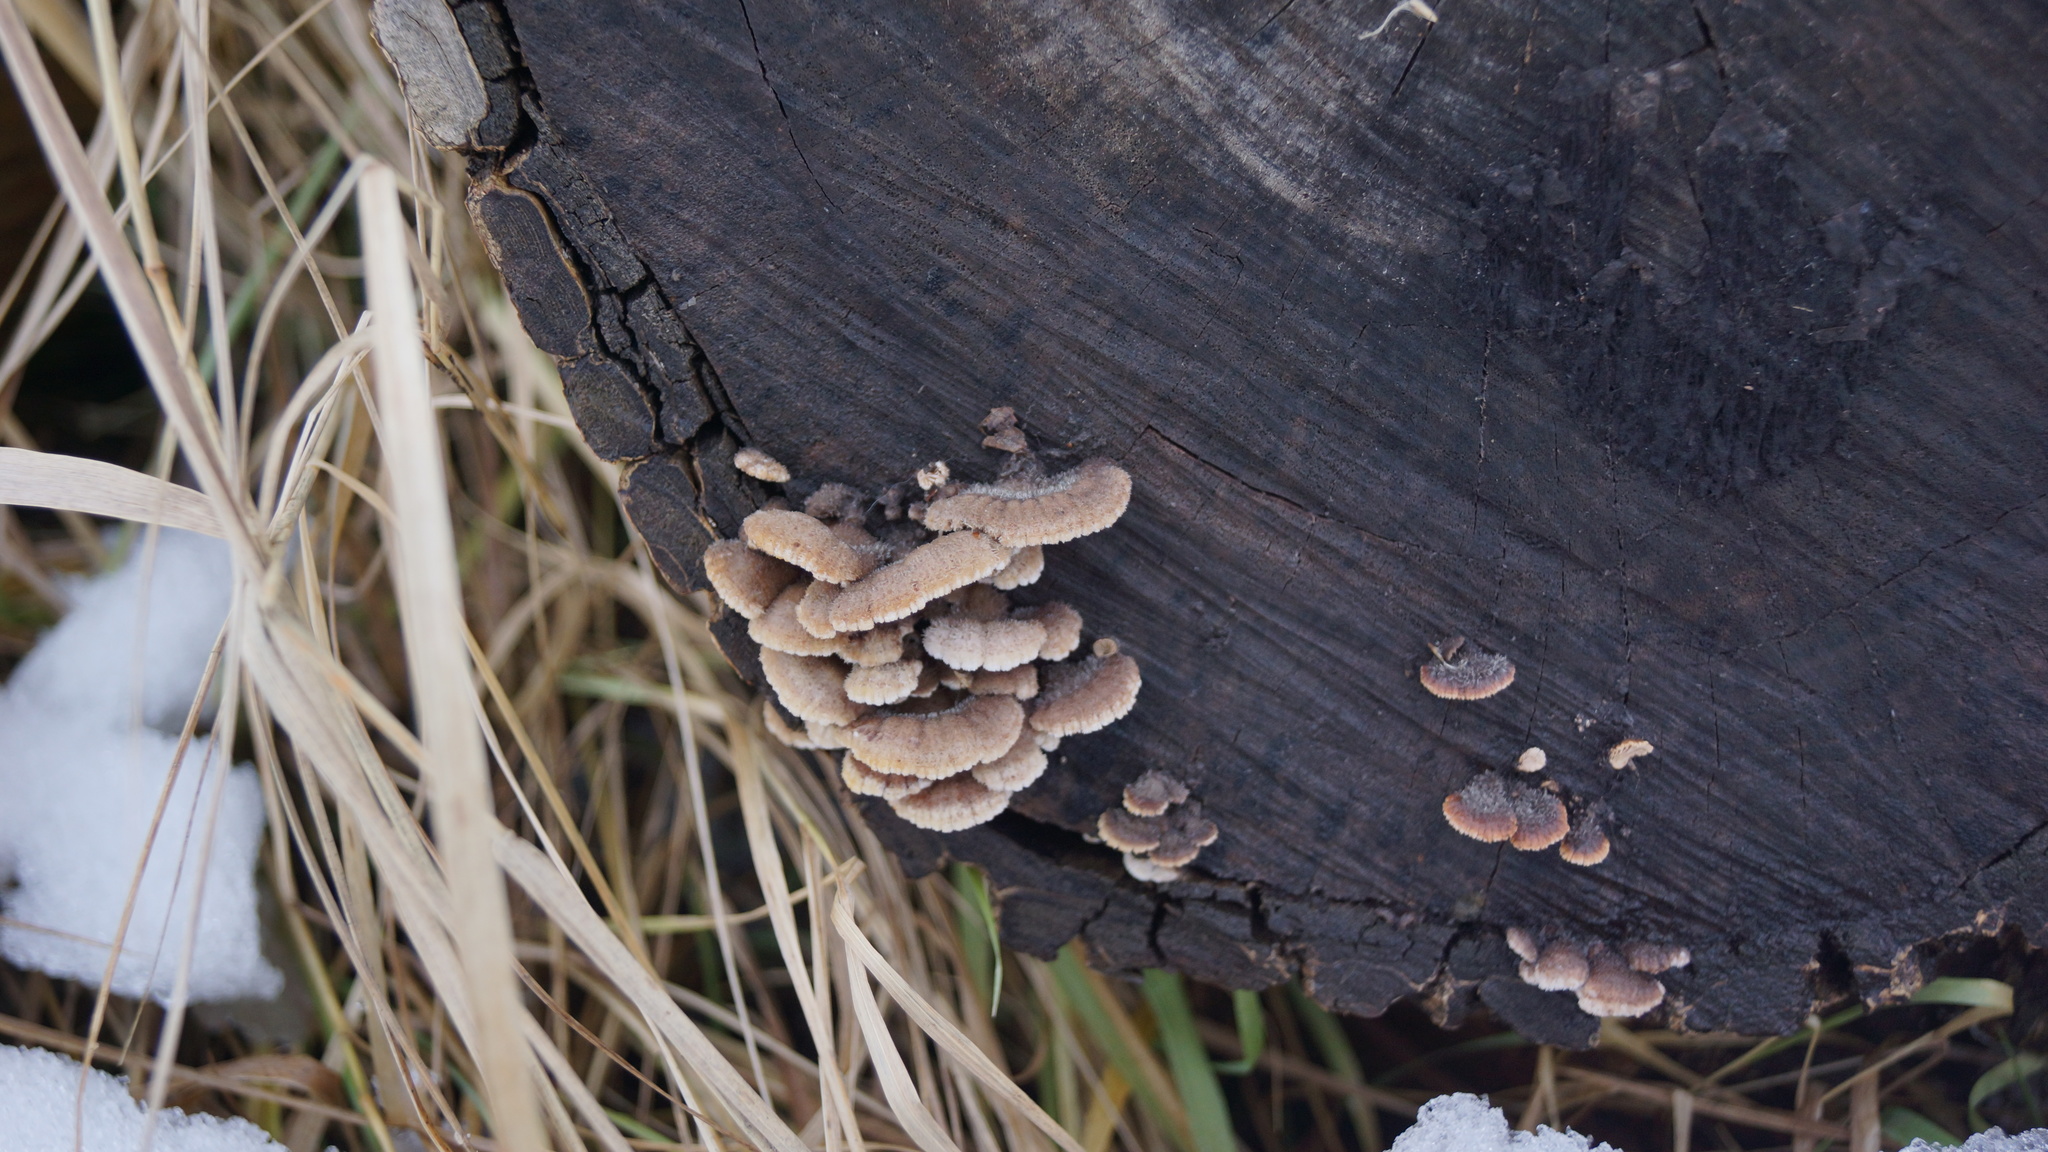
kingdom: Fungi
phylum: Basidiomycota
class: Agaricomycetes
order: Agaricales
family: Schizophyllaceae
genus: Schizophyllum
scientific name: Schizophyllum commune
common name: Common porecrust
